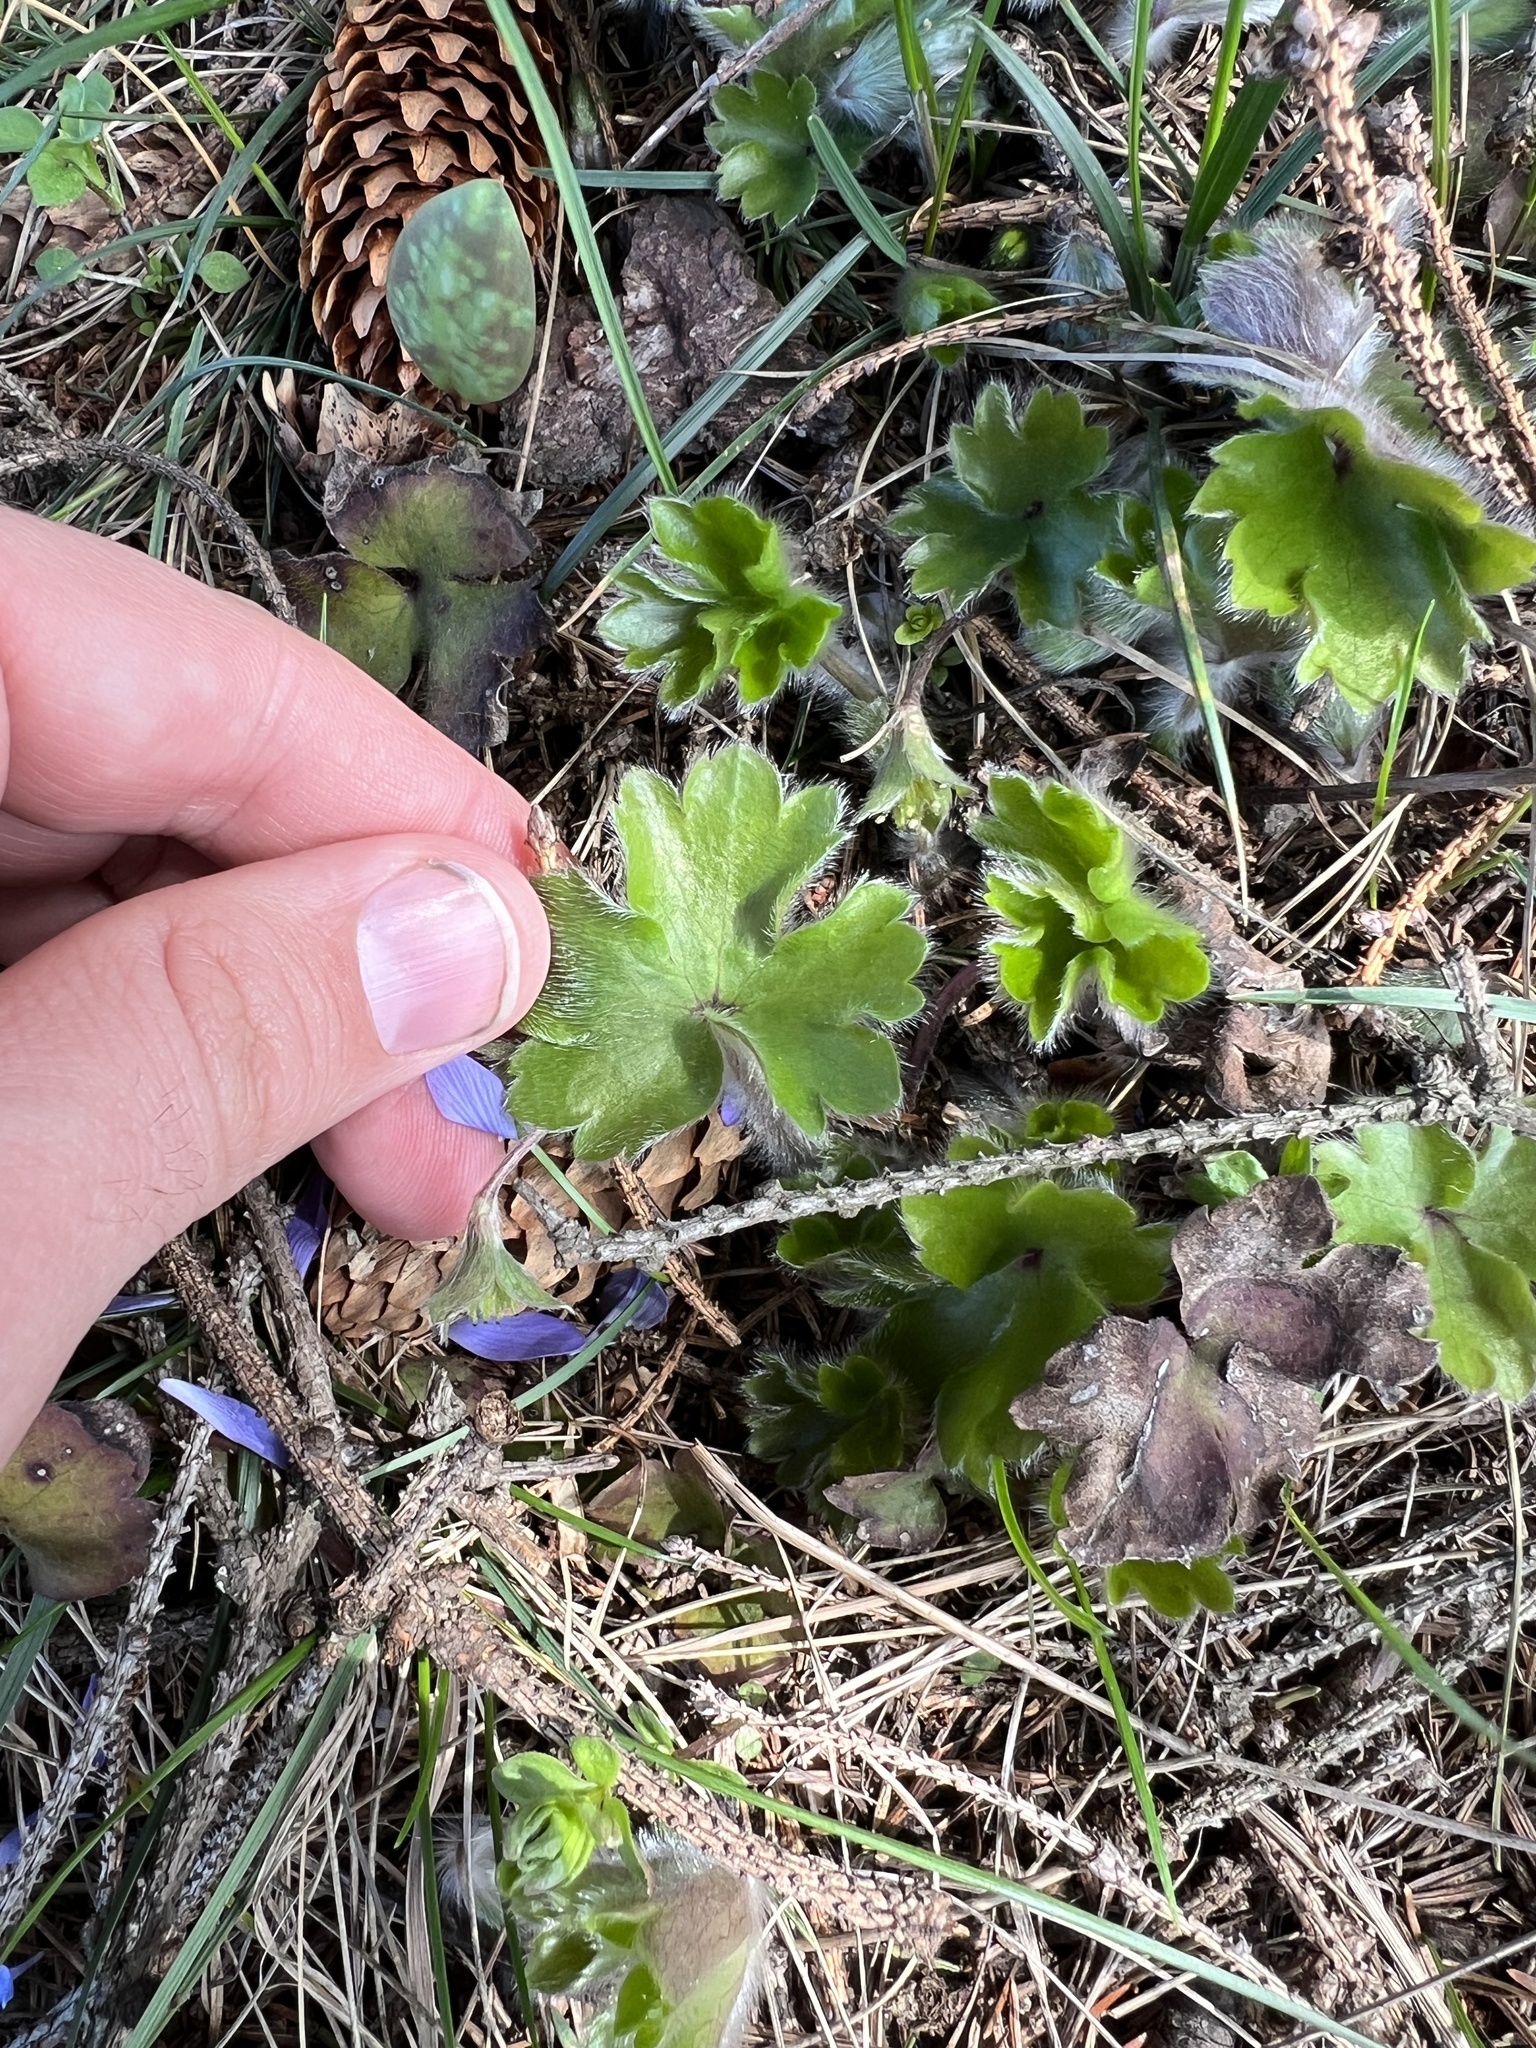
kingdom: Plantae
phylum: Tracheophyta
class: Magnoliopsida
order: Ranunculales
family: Ranunculaceae
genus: Hepatica
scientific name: Hepatica transsilvanica
